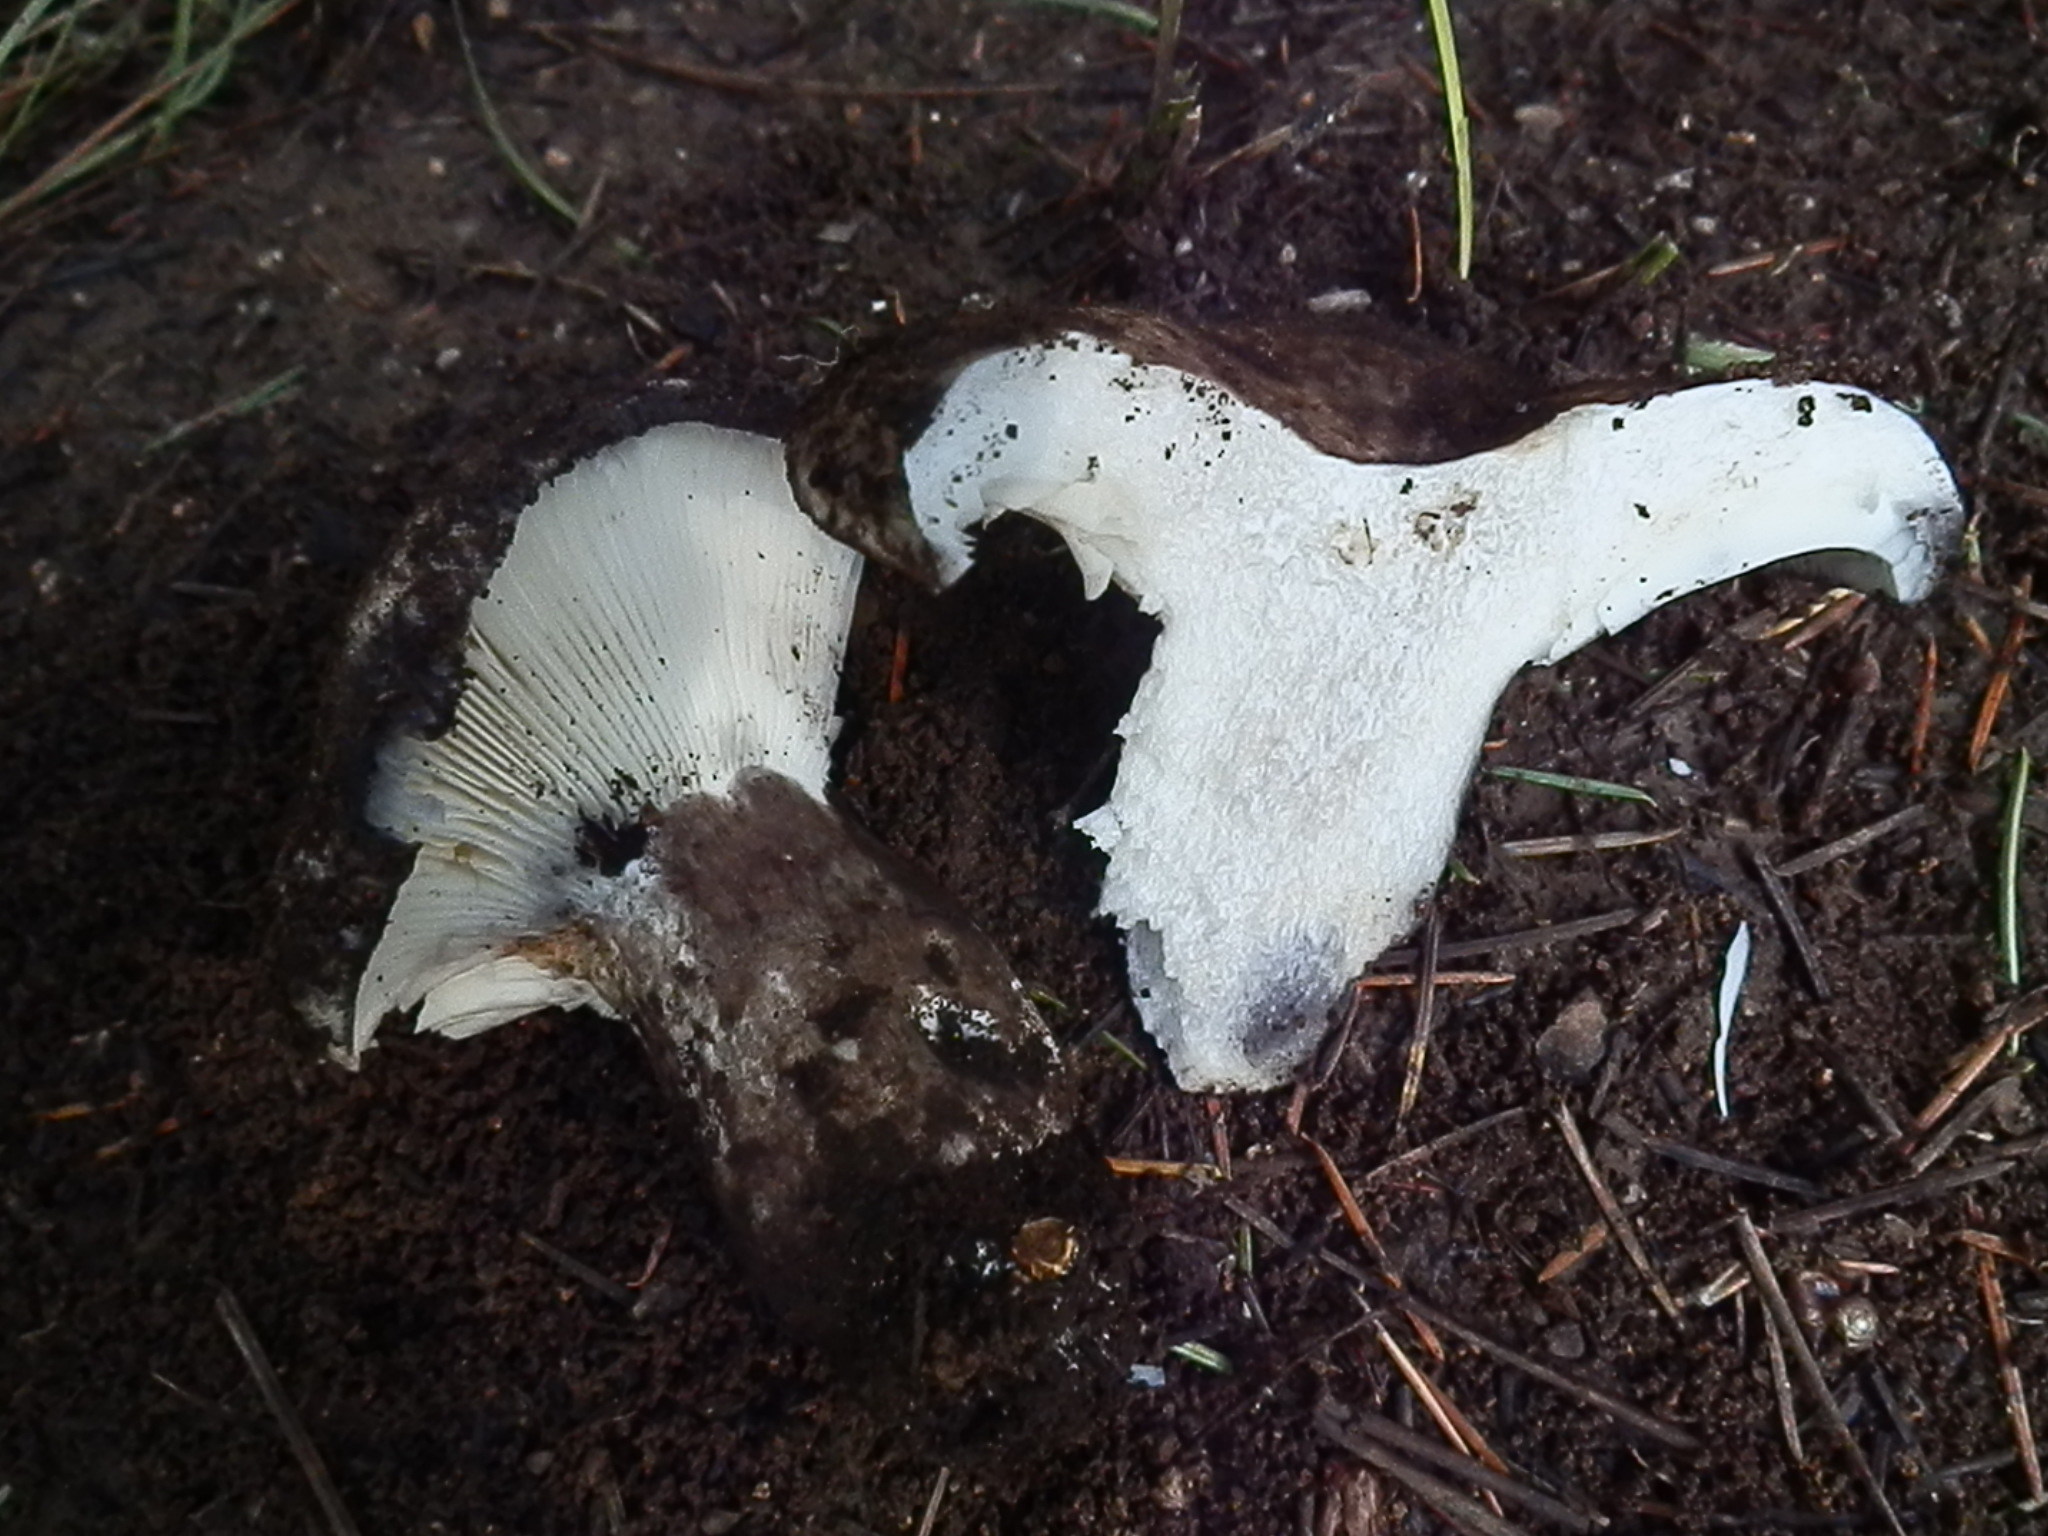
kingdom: Fungi
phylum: Basidiomycota
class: Agaricomycetes
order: Russulales
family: Russulaceae
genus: Russula
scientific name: Russula albonigra
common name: Menthol brittlegill
